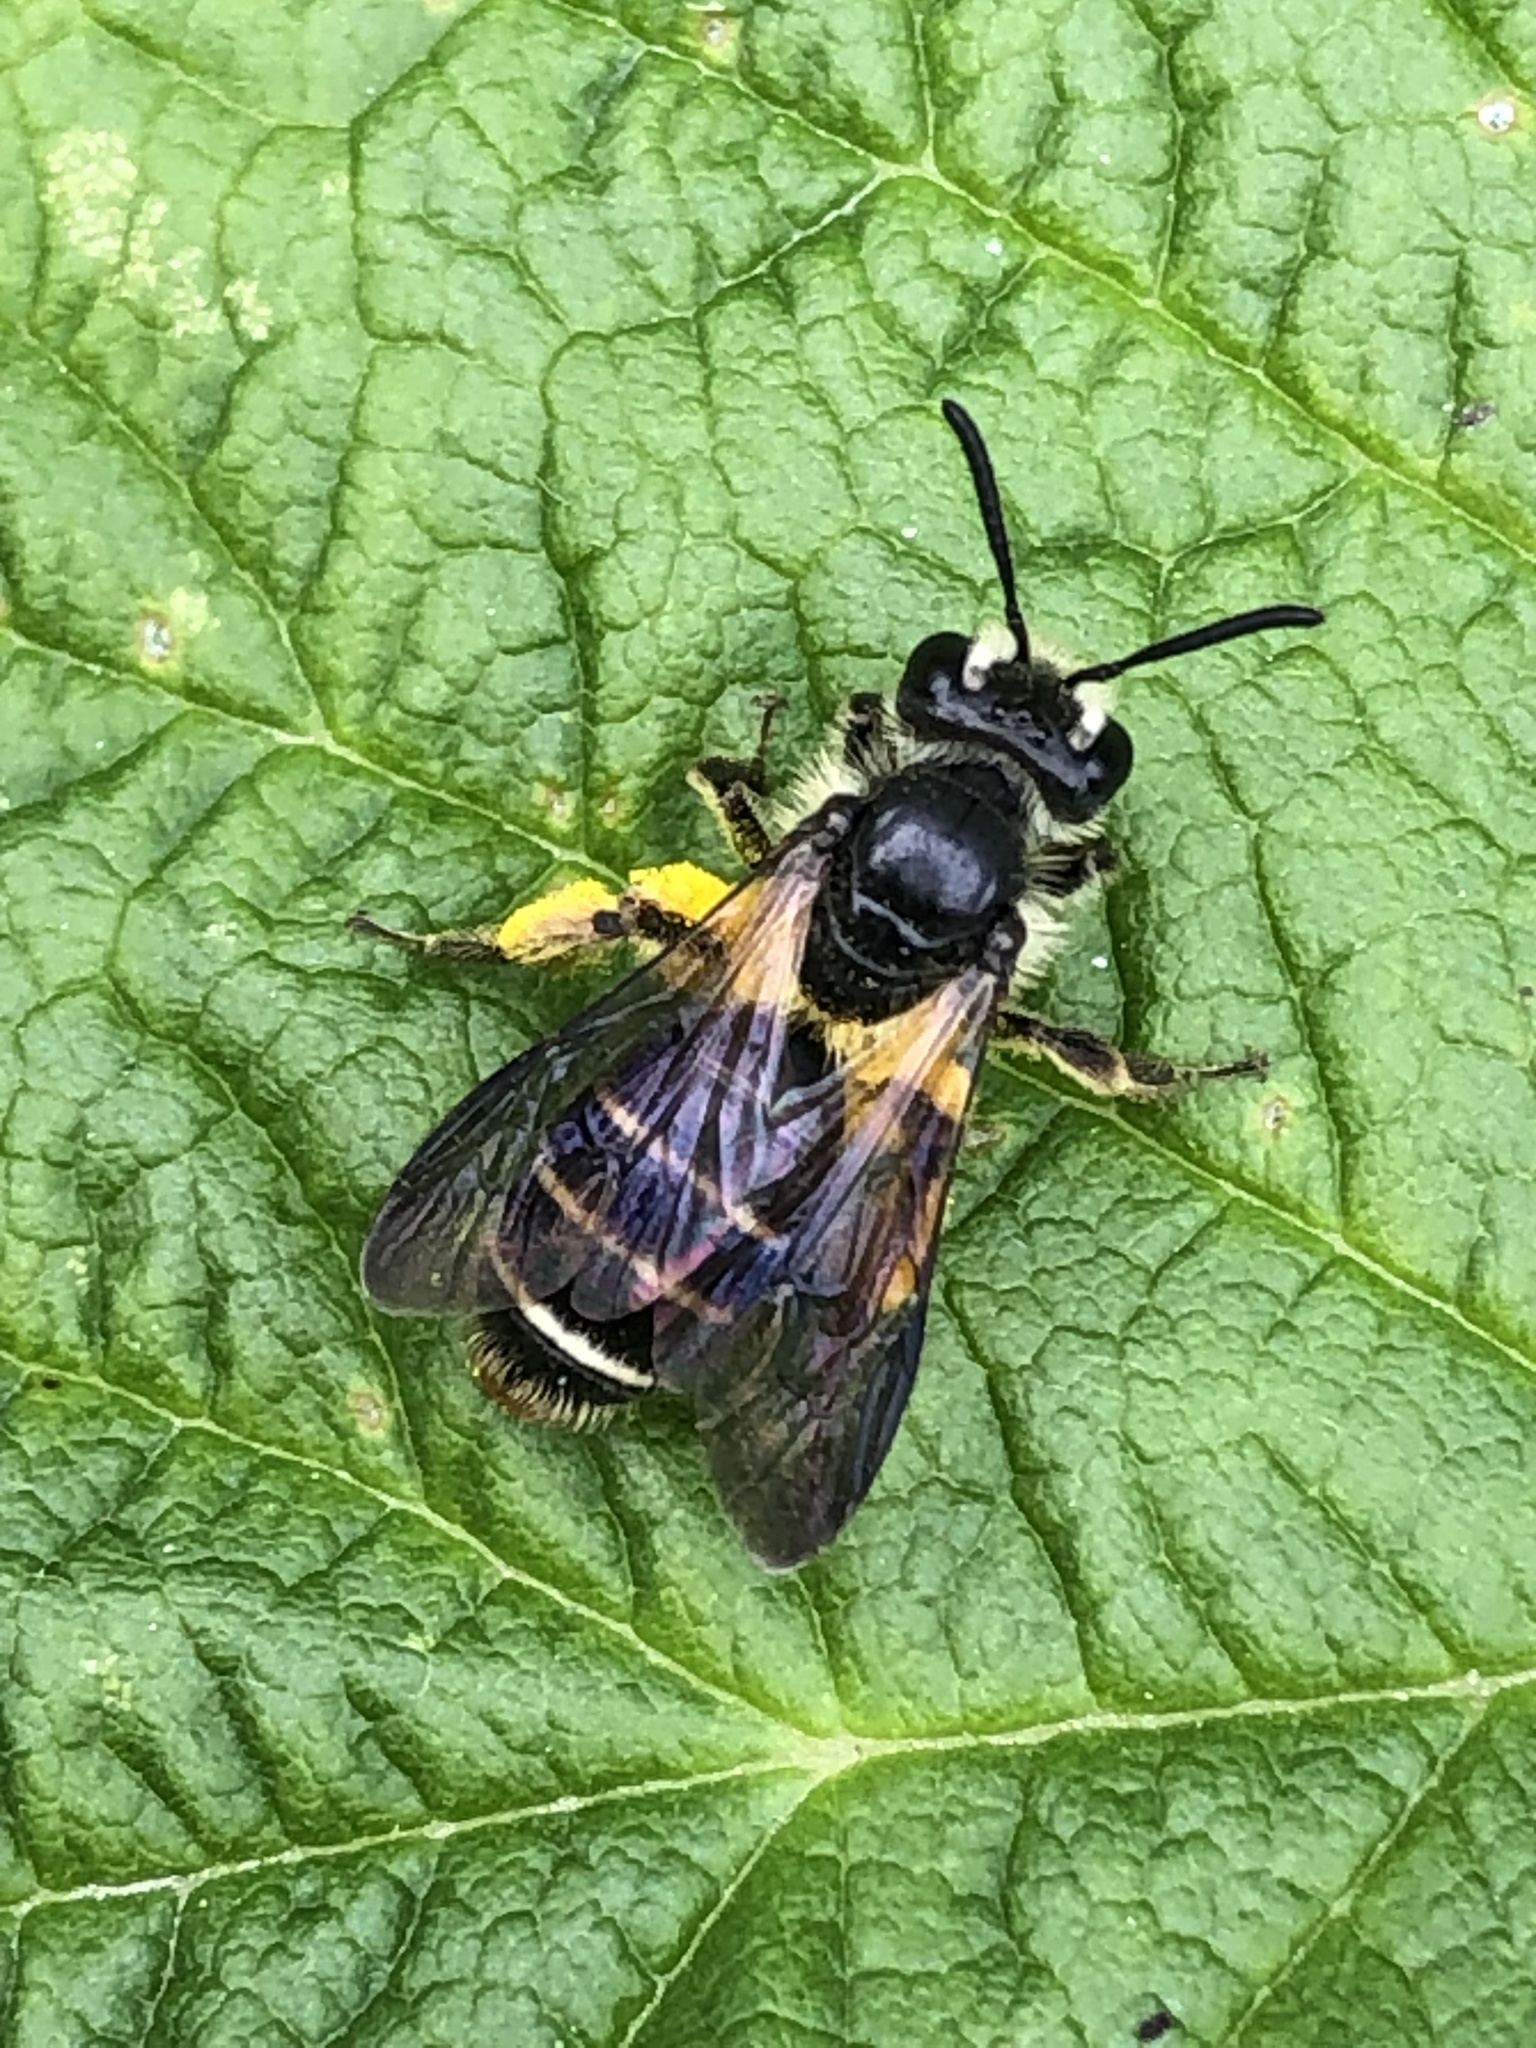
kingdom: Animalia
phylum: Arthropoda
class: Insecta
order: Hymenoptera
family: Andrenidae
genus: Andrena
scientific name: Andrena nubecula
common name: Cloudy-winged mining bee
